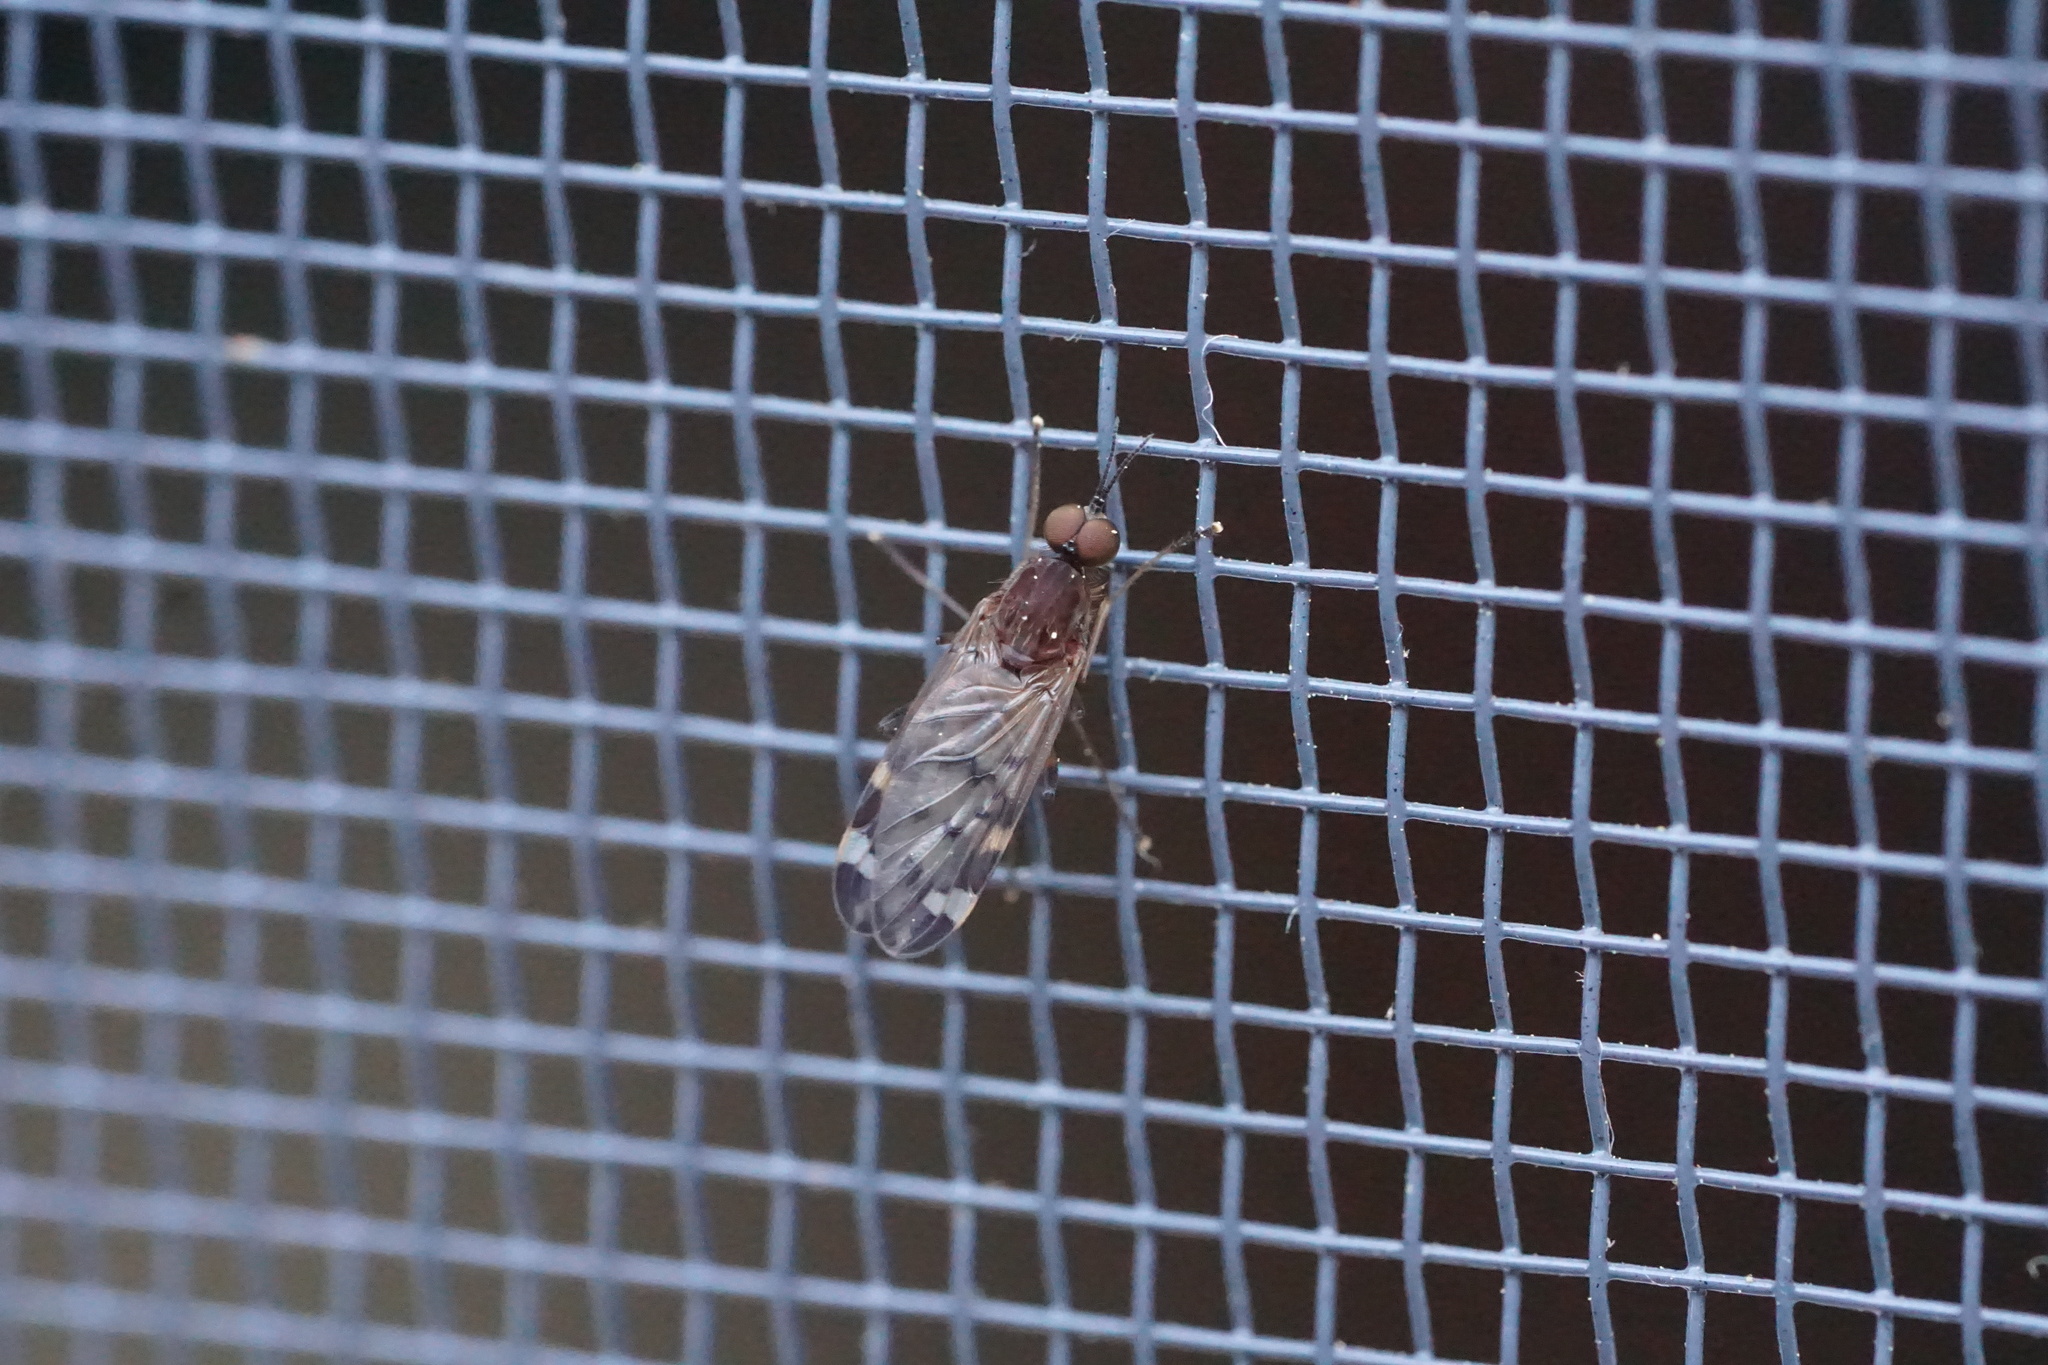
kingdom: Animalia
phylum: Arthropoda
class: Insecta
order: Diptera
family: Anisopodidae
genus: Sylvicola
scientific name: Sylvicola alternata
